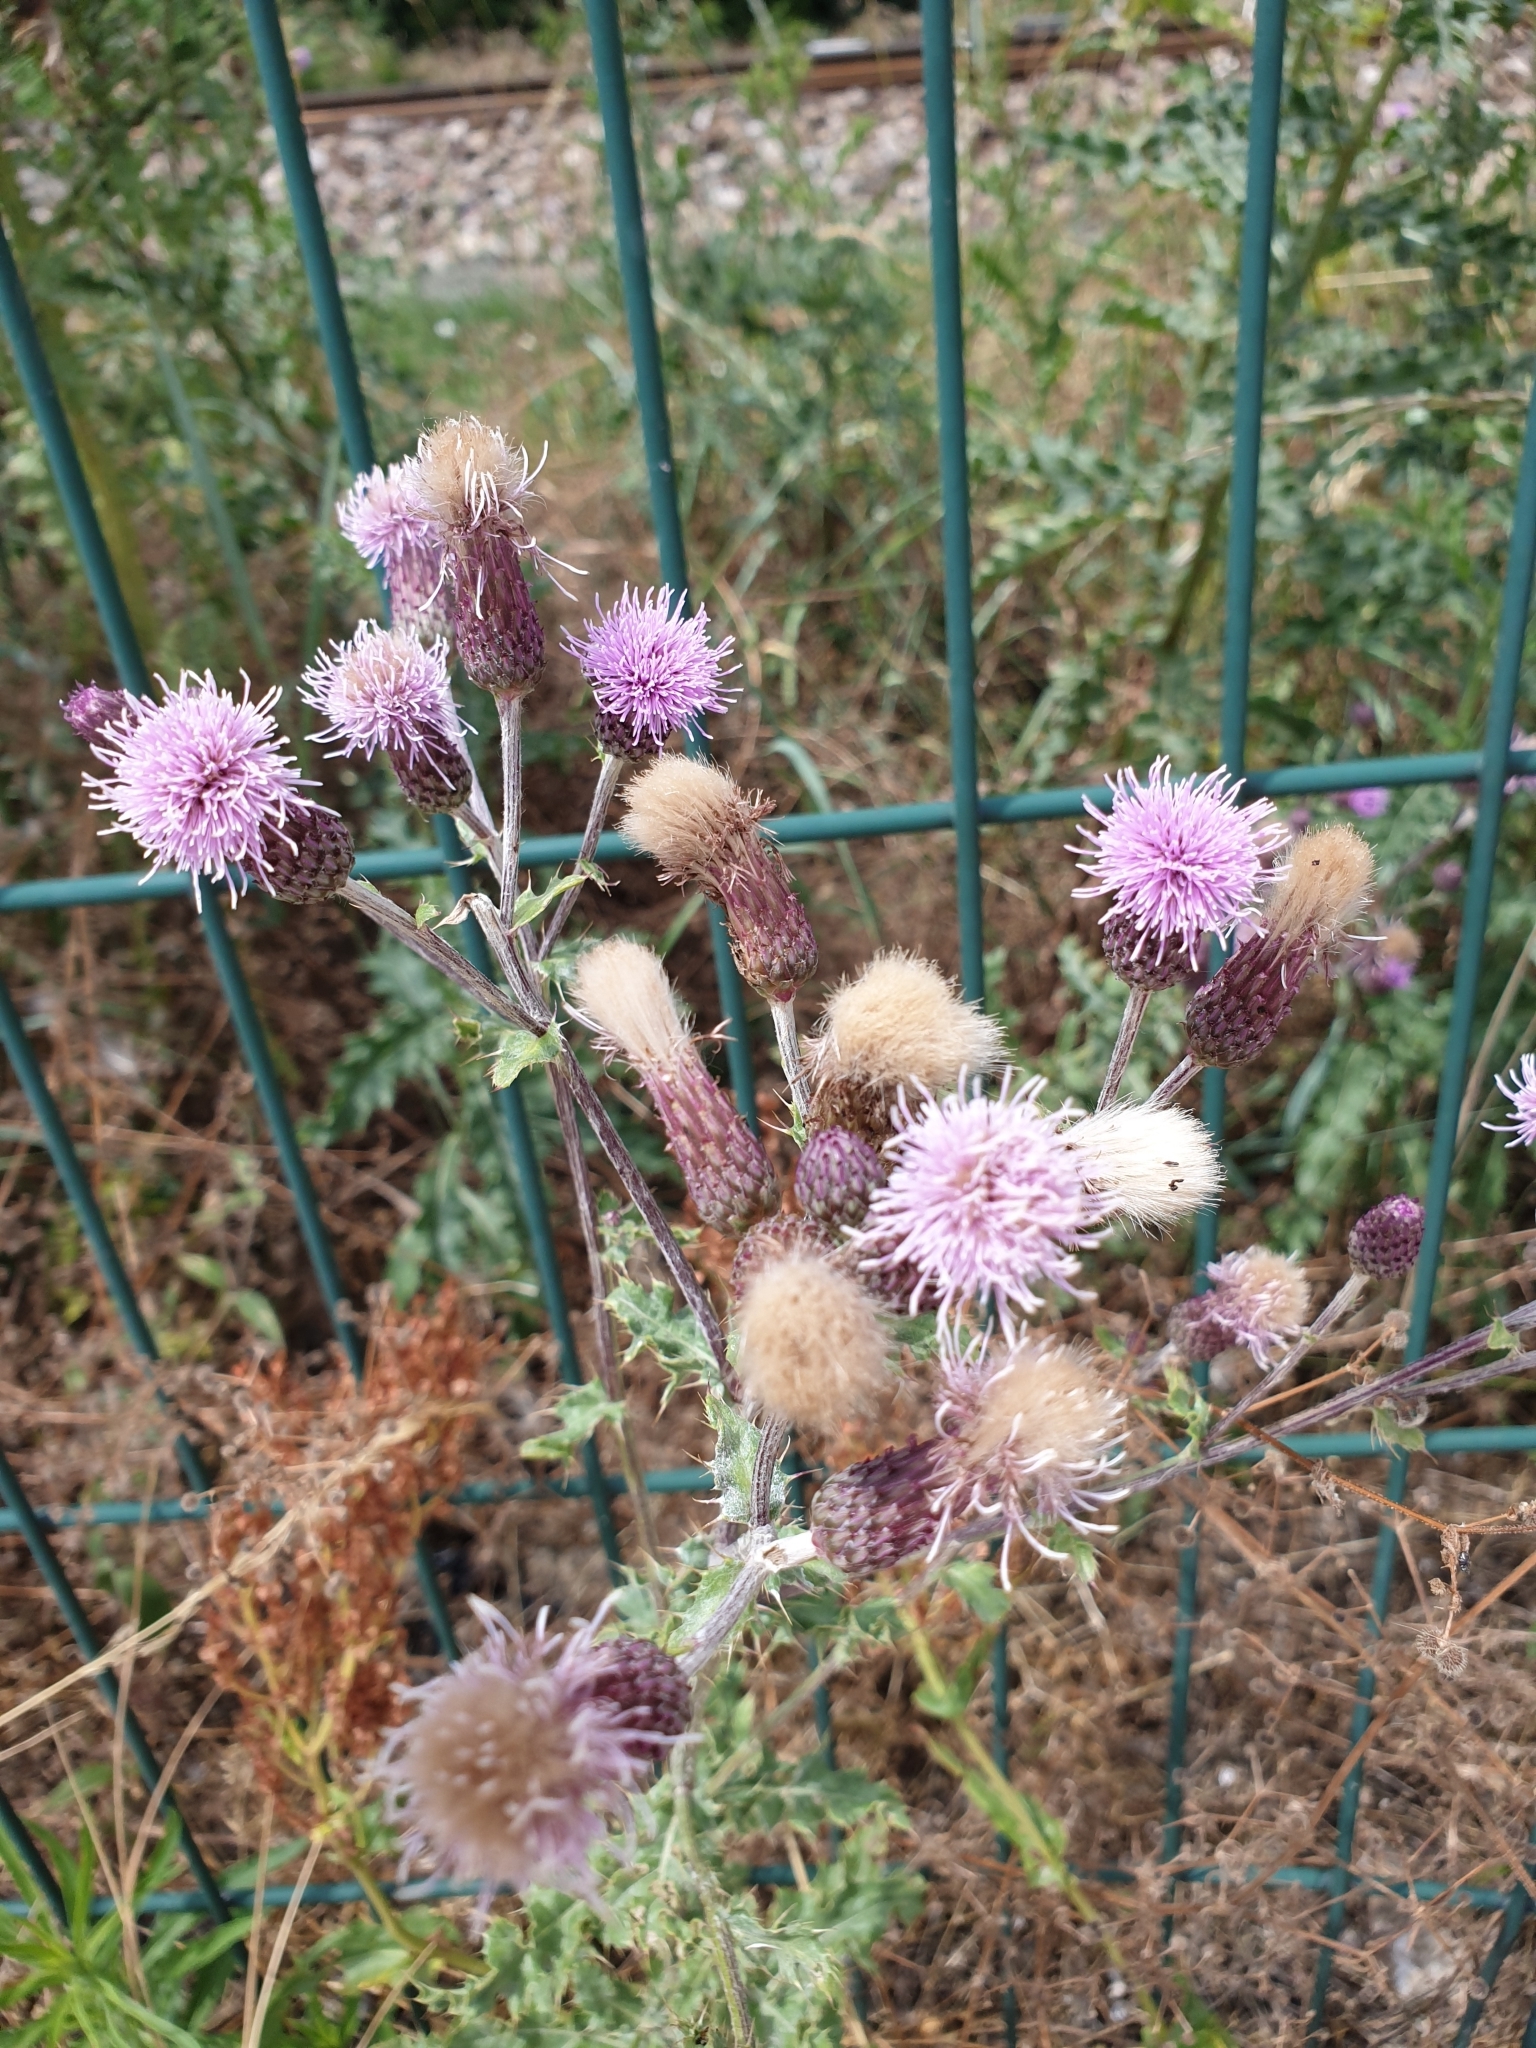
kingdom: Plantae
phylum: Tracheophyta
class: Magnoliopsida
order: Asterales
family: Asteraceae
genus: Cirsium
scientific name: Cirsium arvense
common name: Creeping thistle
